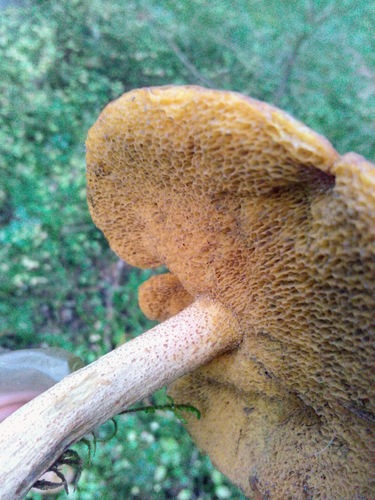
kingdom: Fungi
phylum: Basidiomycota
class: Agaricomycetes
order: Boletales
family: Suillaceae
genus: Suillus
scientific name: Suillus punctipes
